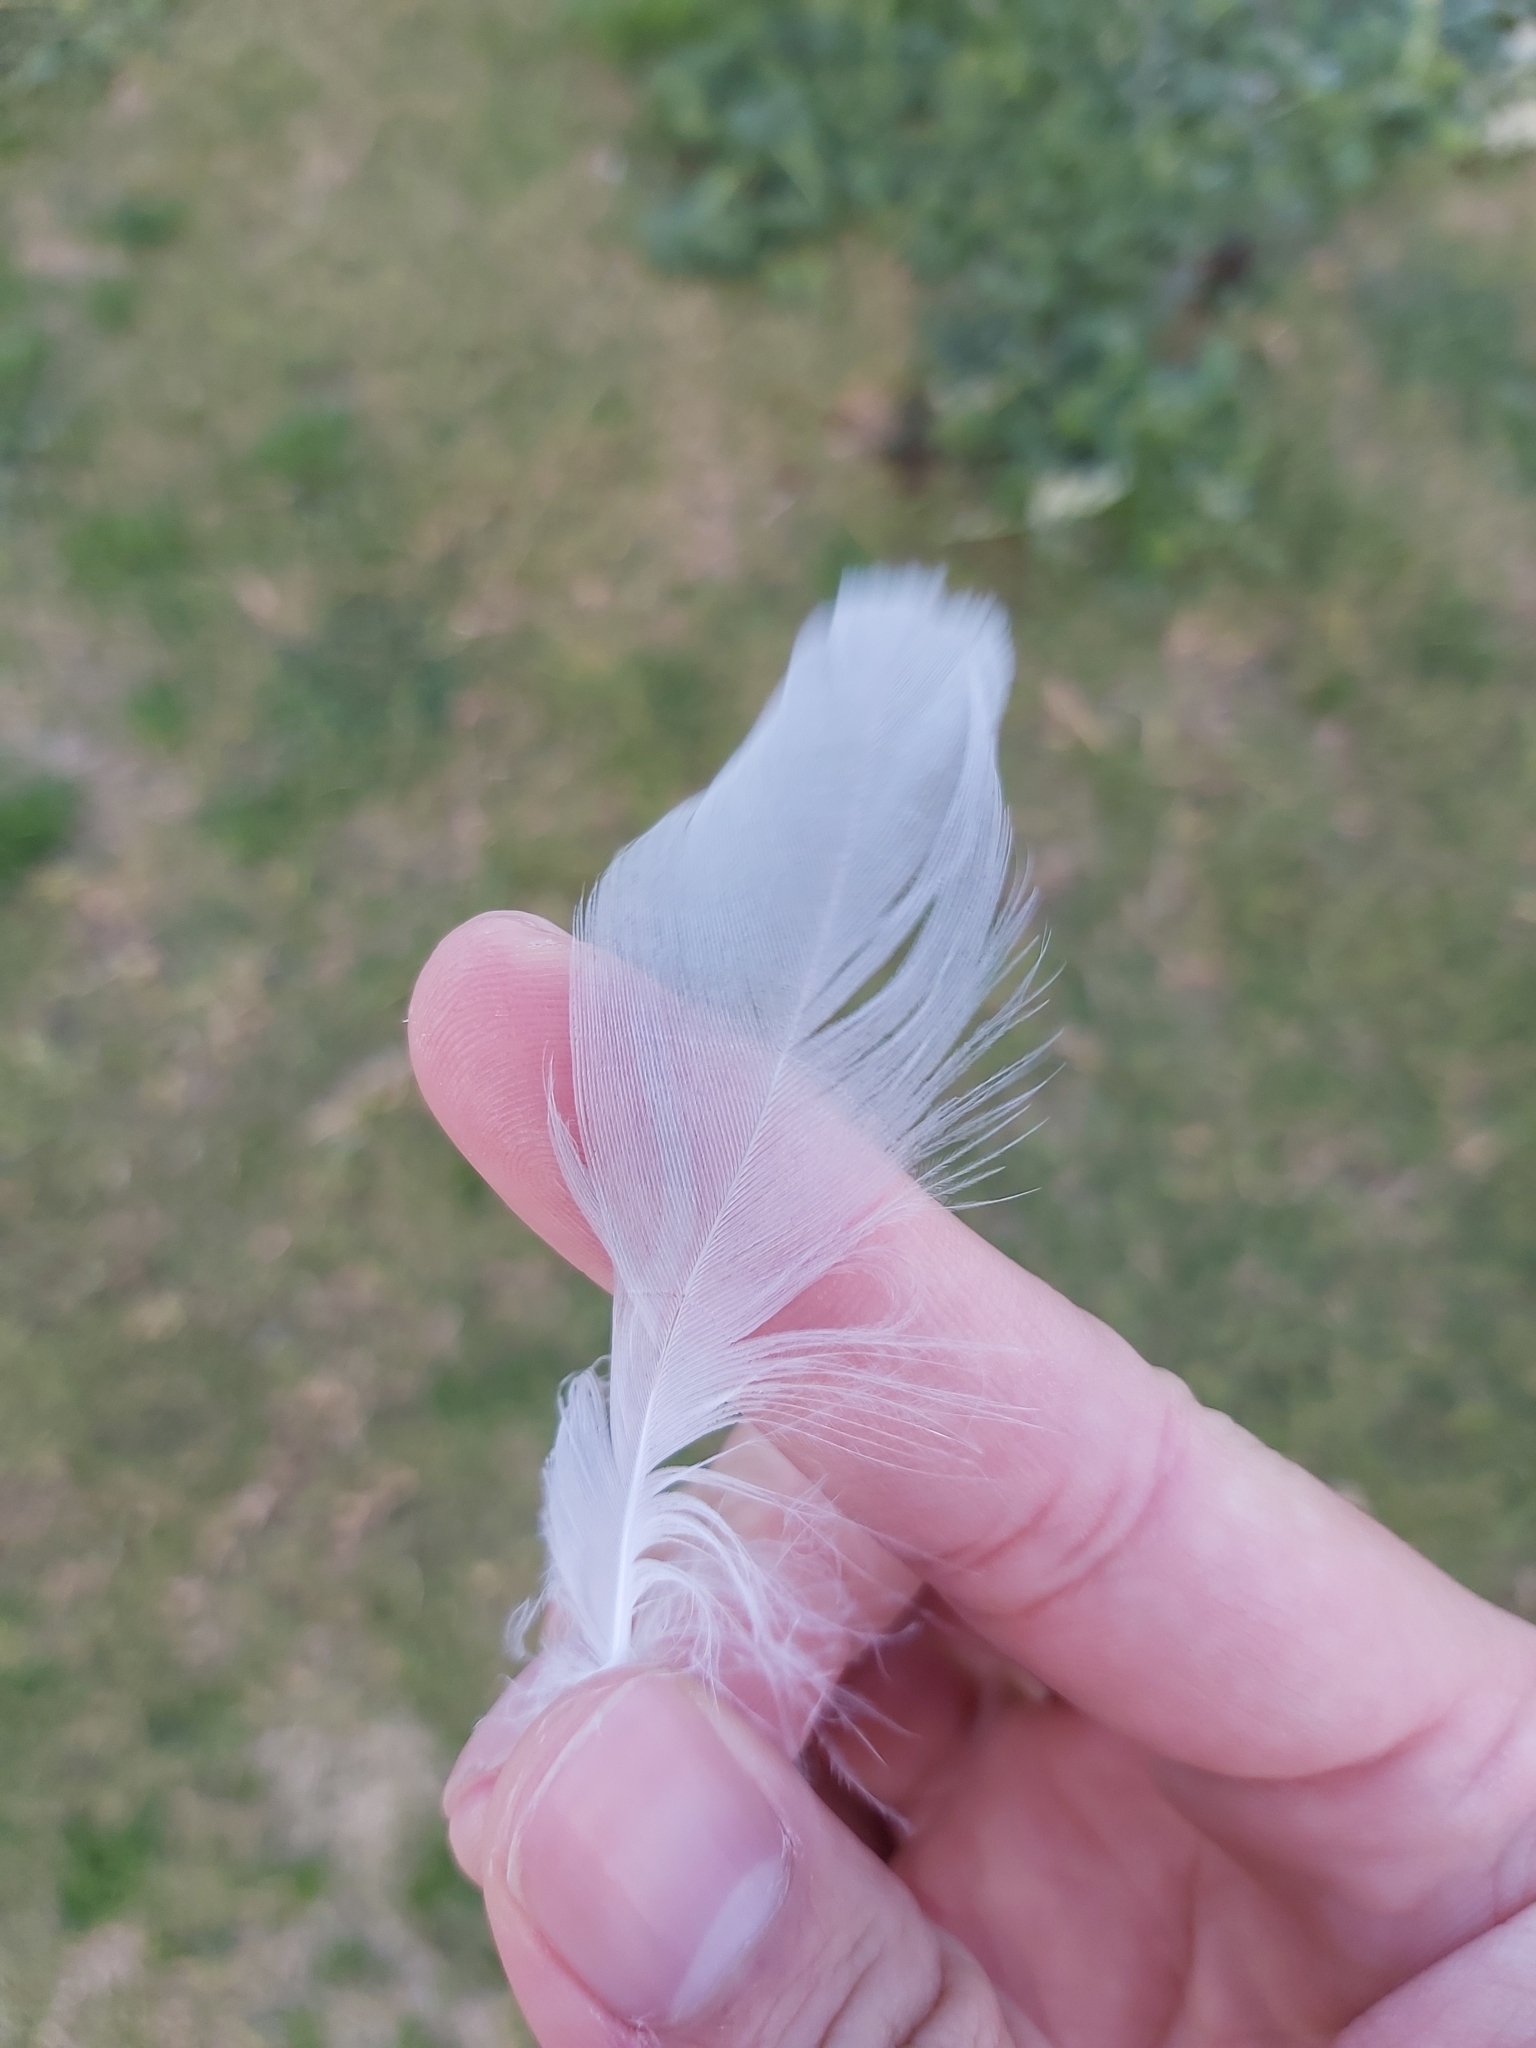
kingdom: Animalia
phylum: Chordata
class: Aves
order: Charadriiformes
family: Laridae
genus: Chroicocephalus
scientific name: Chroicocephalus novaehollandiae
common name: Silver gull
